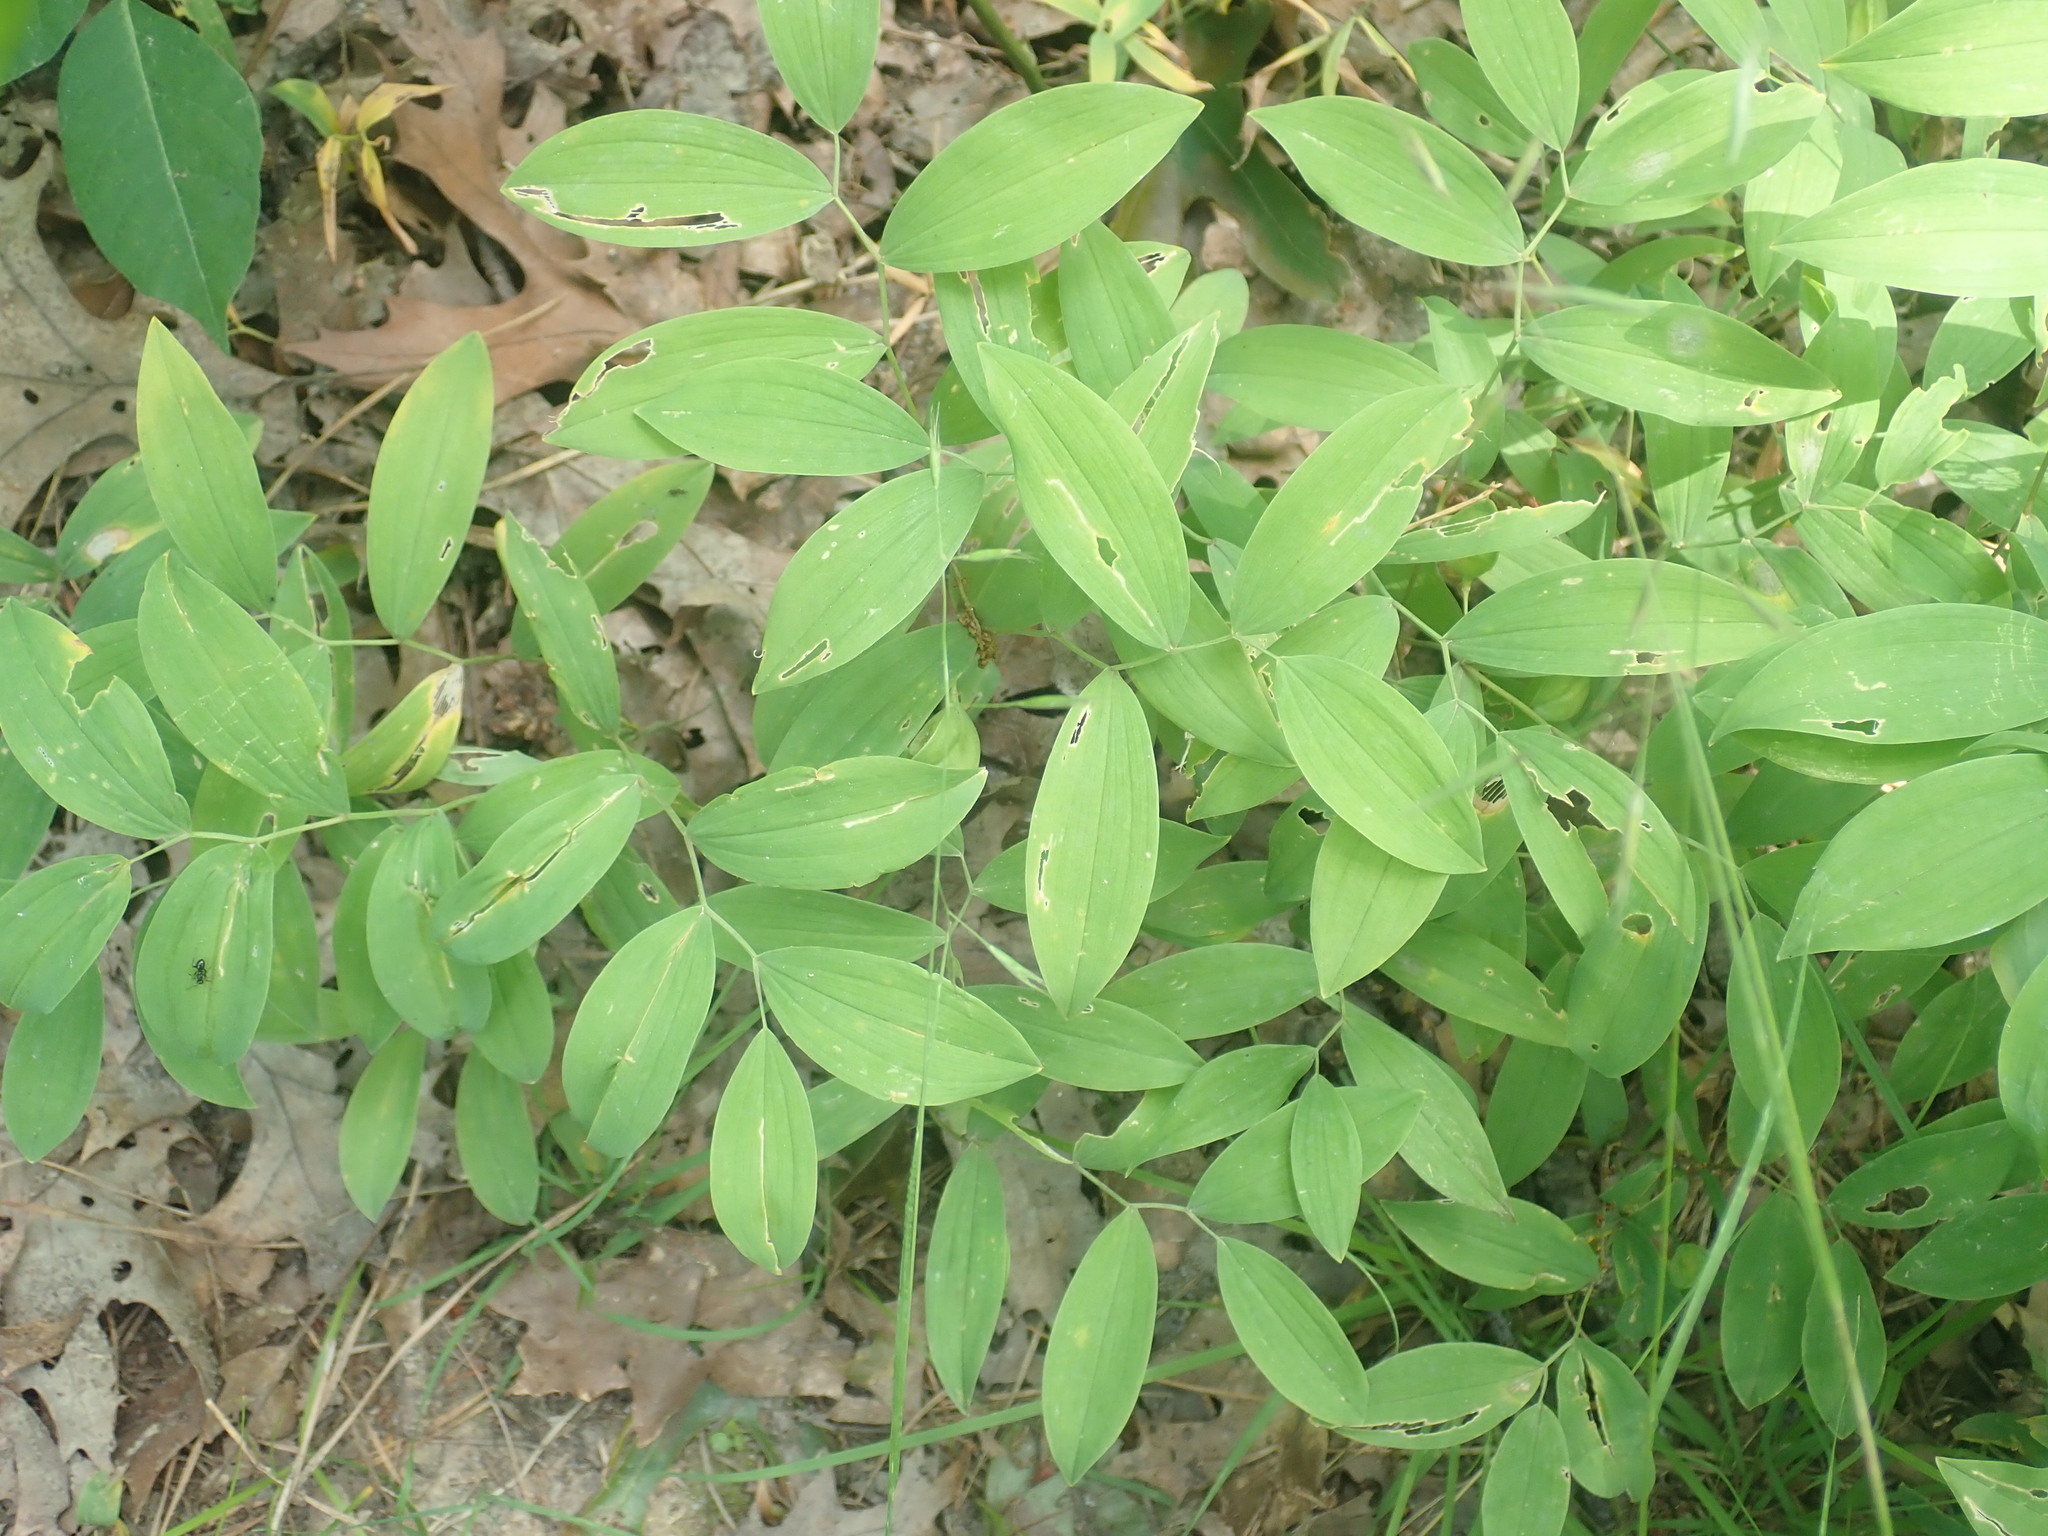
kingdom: Plantae
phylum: Tracheophyta
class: Liliopsida
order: Liliales
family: Colchicaceae
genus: Uvularia
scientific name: Uvularia sessilifolia
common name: Straw-lily
